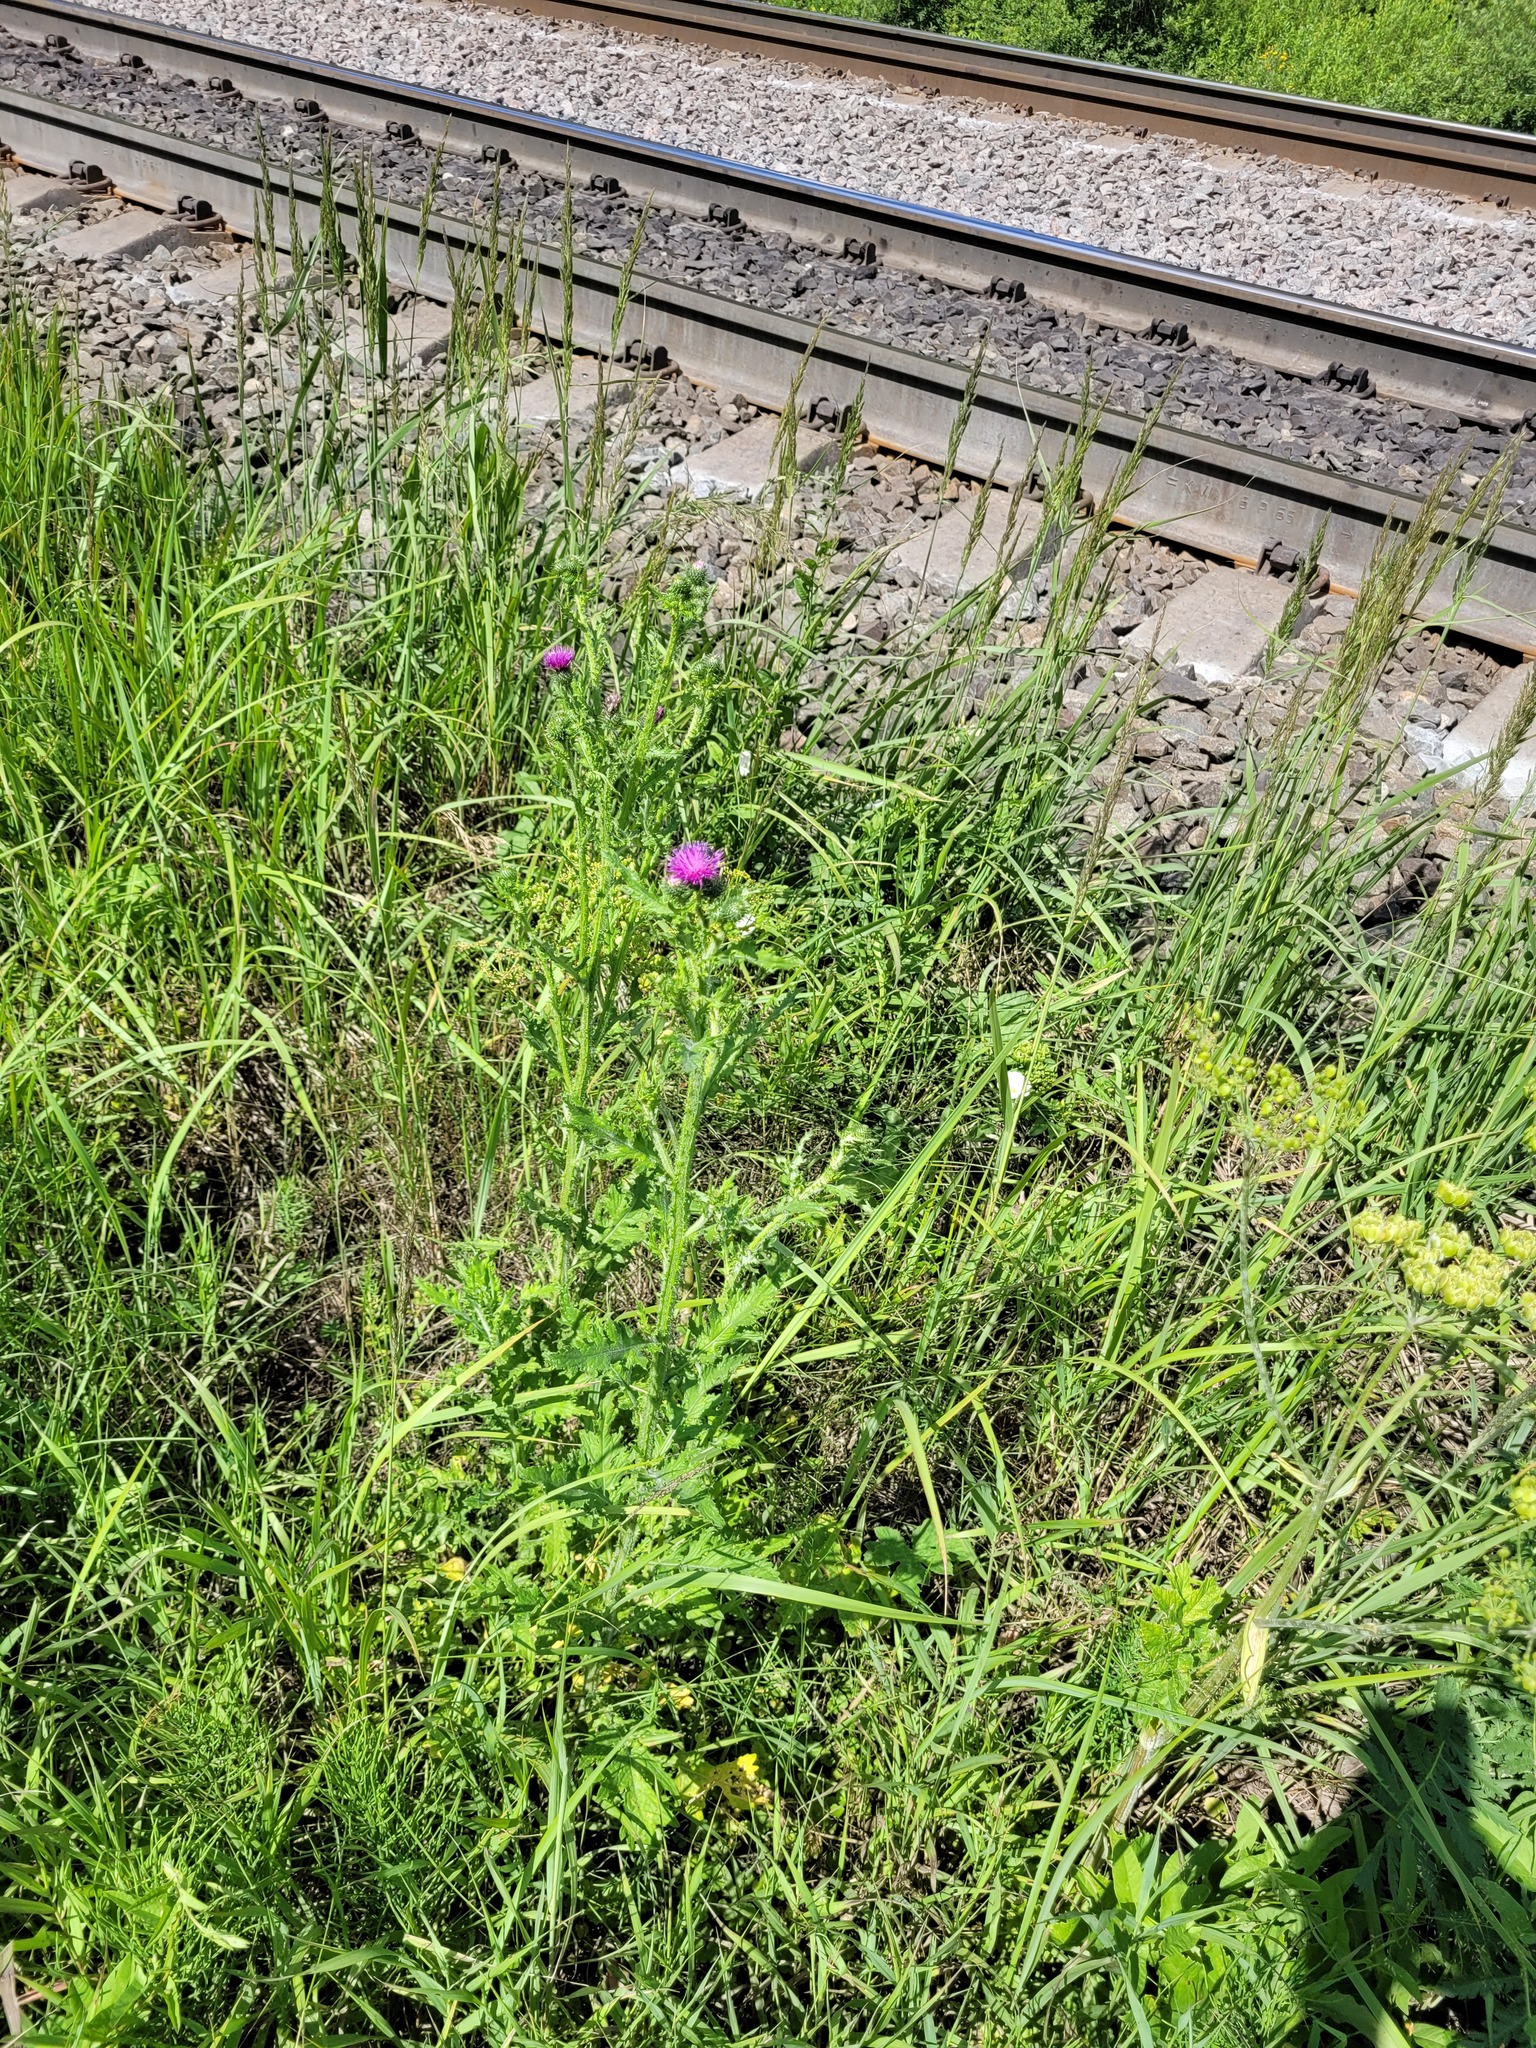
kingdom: Plantae
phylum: Tracheophyta
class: Magnoliopsida
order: Asterales
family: Asteraceae
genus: Carduus
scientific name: Carduus crispus
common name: Welted thistle
